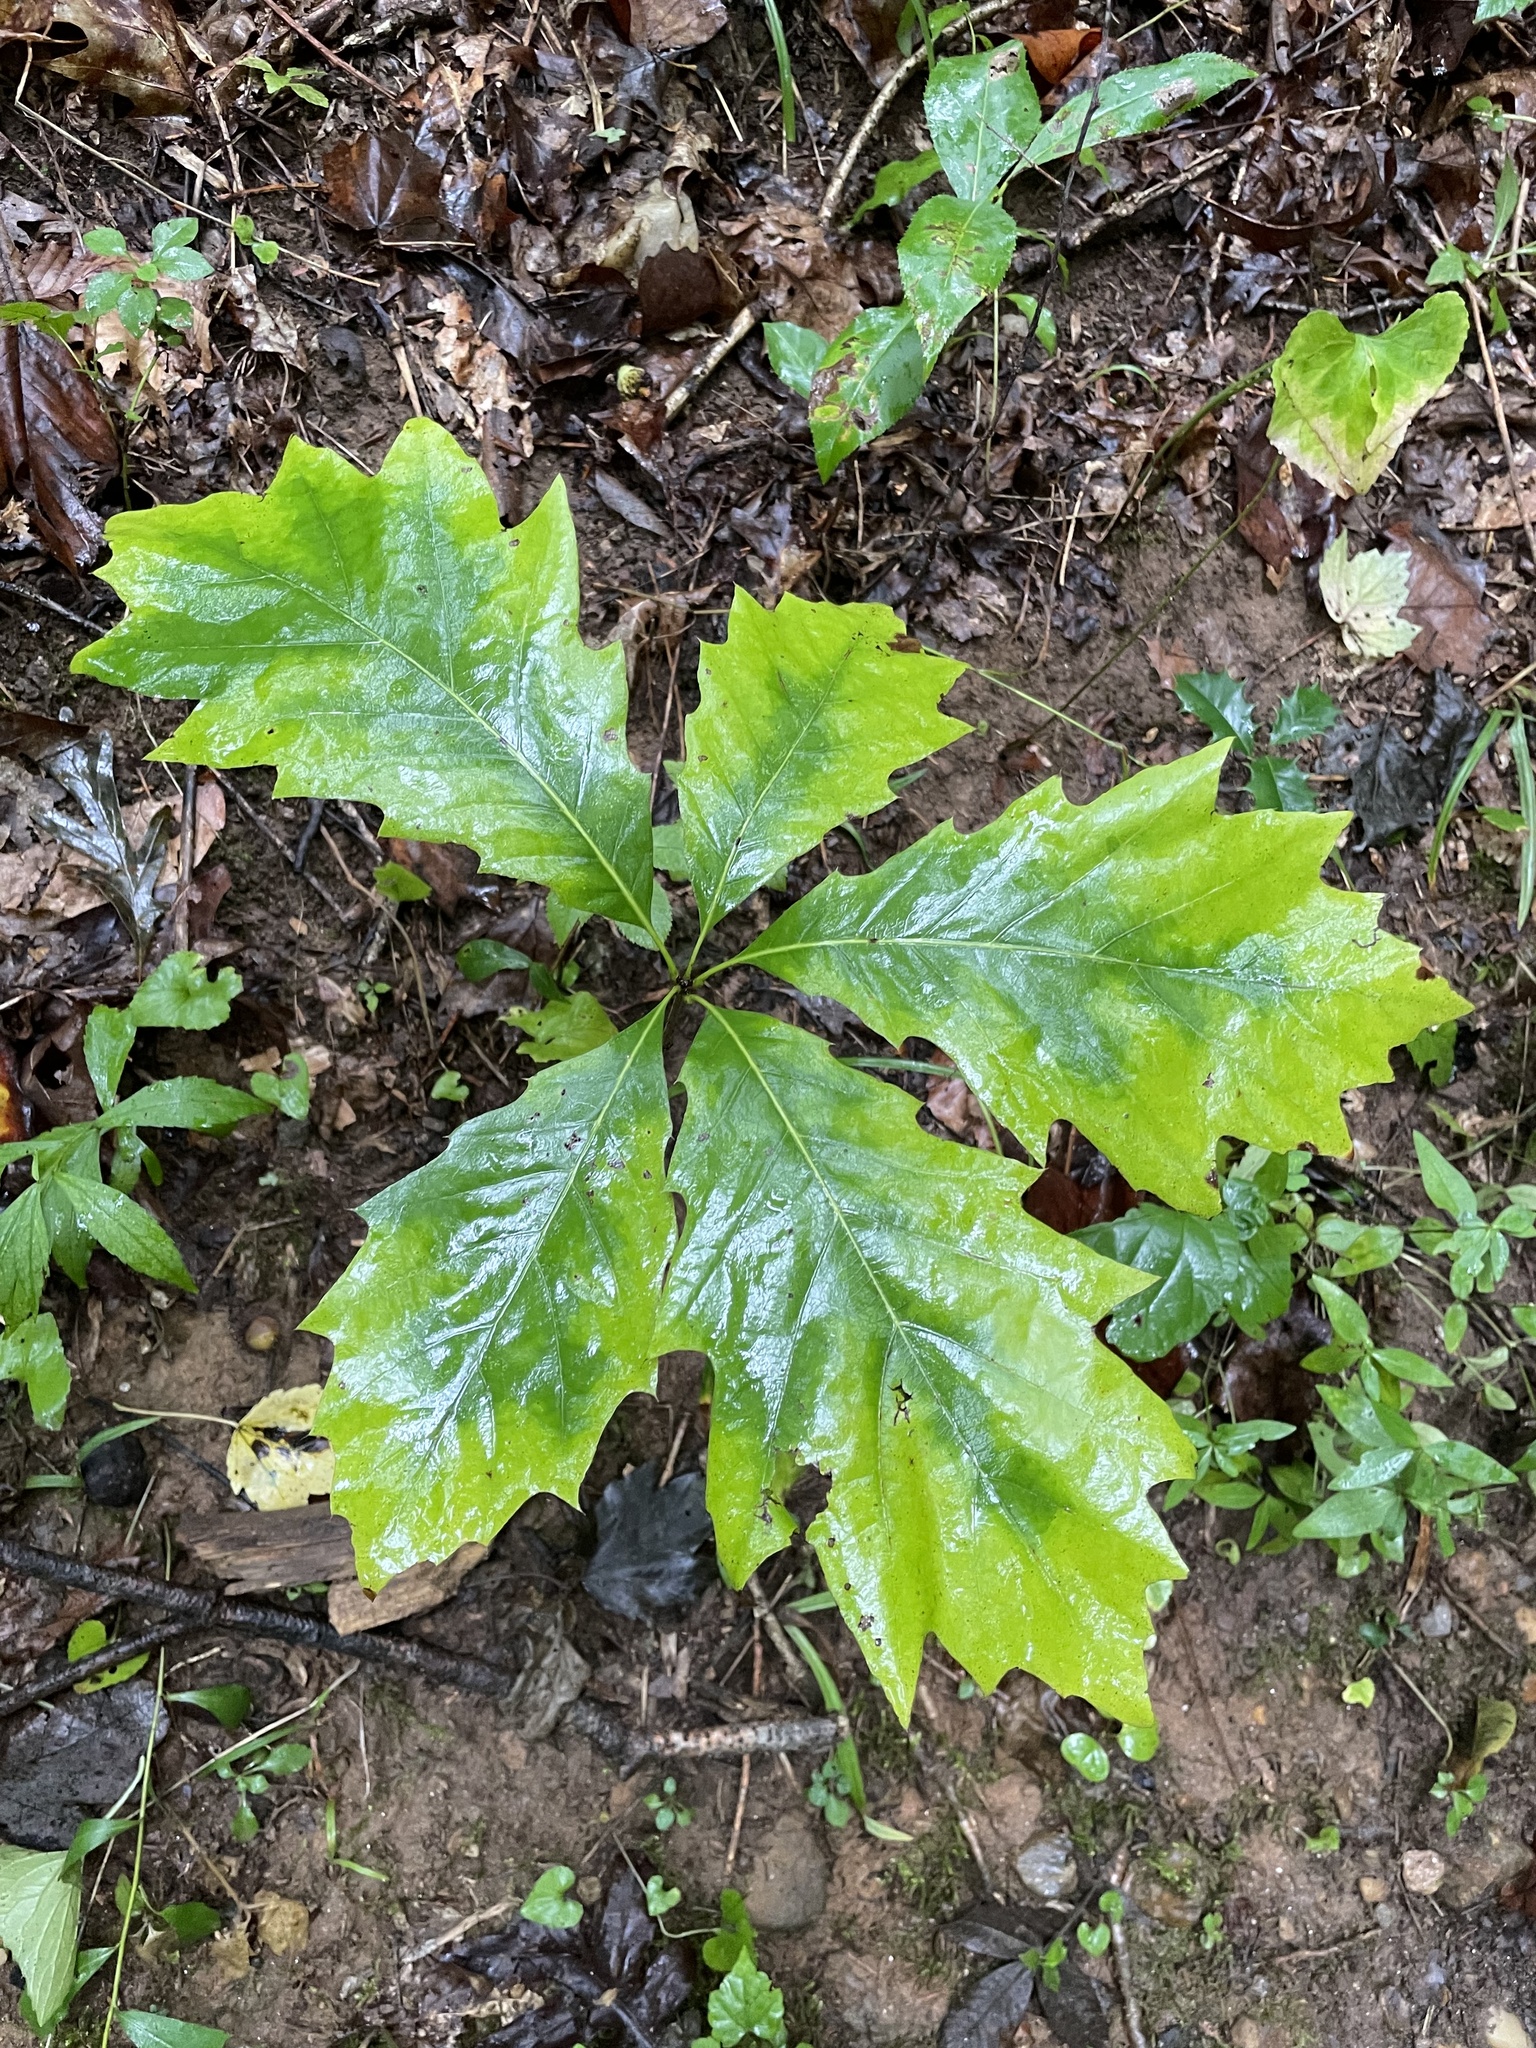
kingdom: Plantae
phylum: Tracheophyta
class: Magnoliopsida
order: Fagales
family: Fagaceae
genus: Quercus
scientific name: Quercus rubra
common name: Red oak
